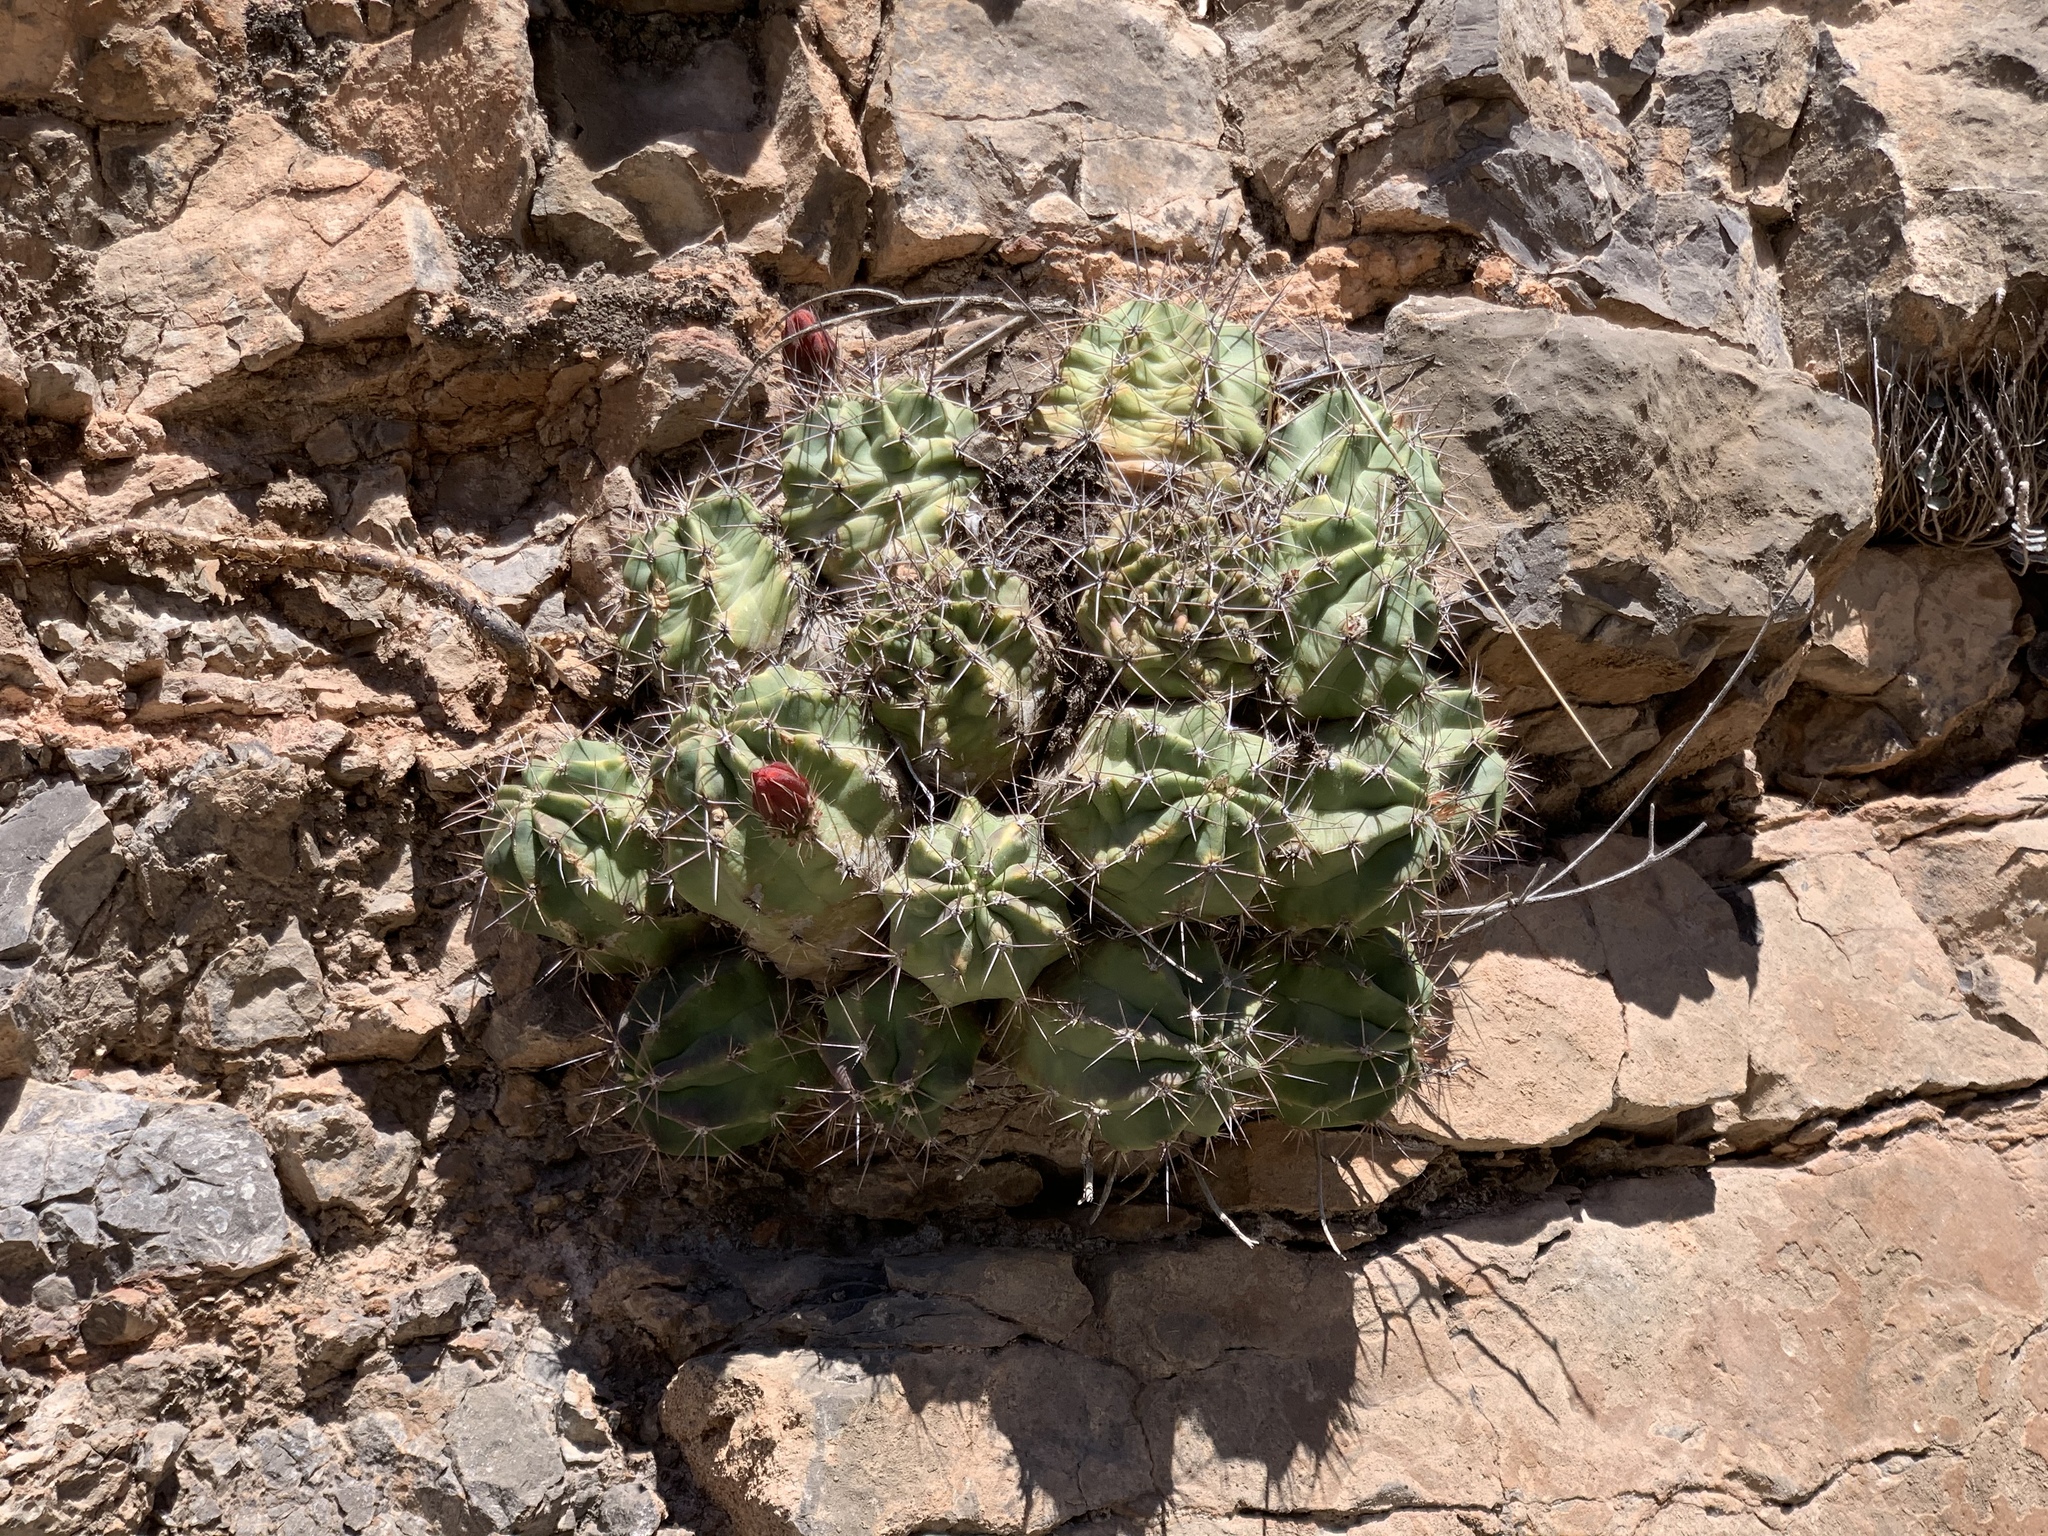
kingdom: Plantae
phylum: Tracheophyta
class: Magnoliopsida
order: Caryophyllales
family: Cactaceae
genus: Echinocereus
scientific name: Echinocereus coccineus
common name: Scarlet hedgehog cactus
